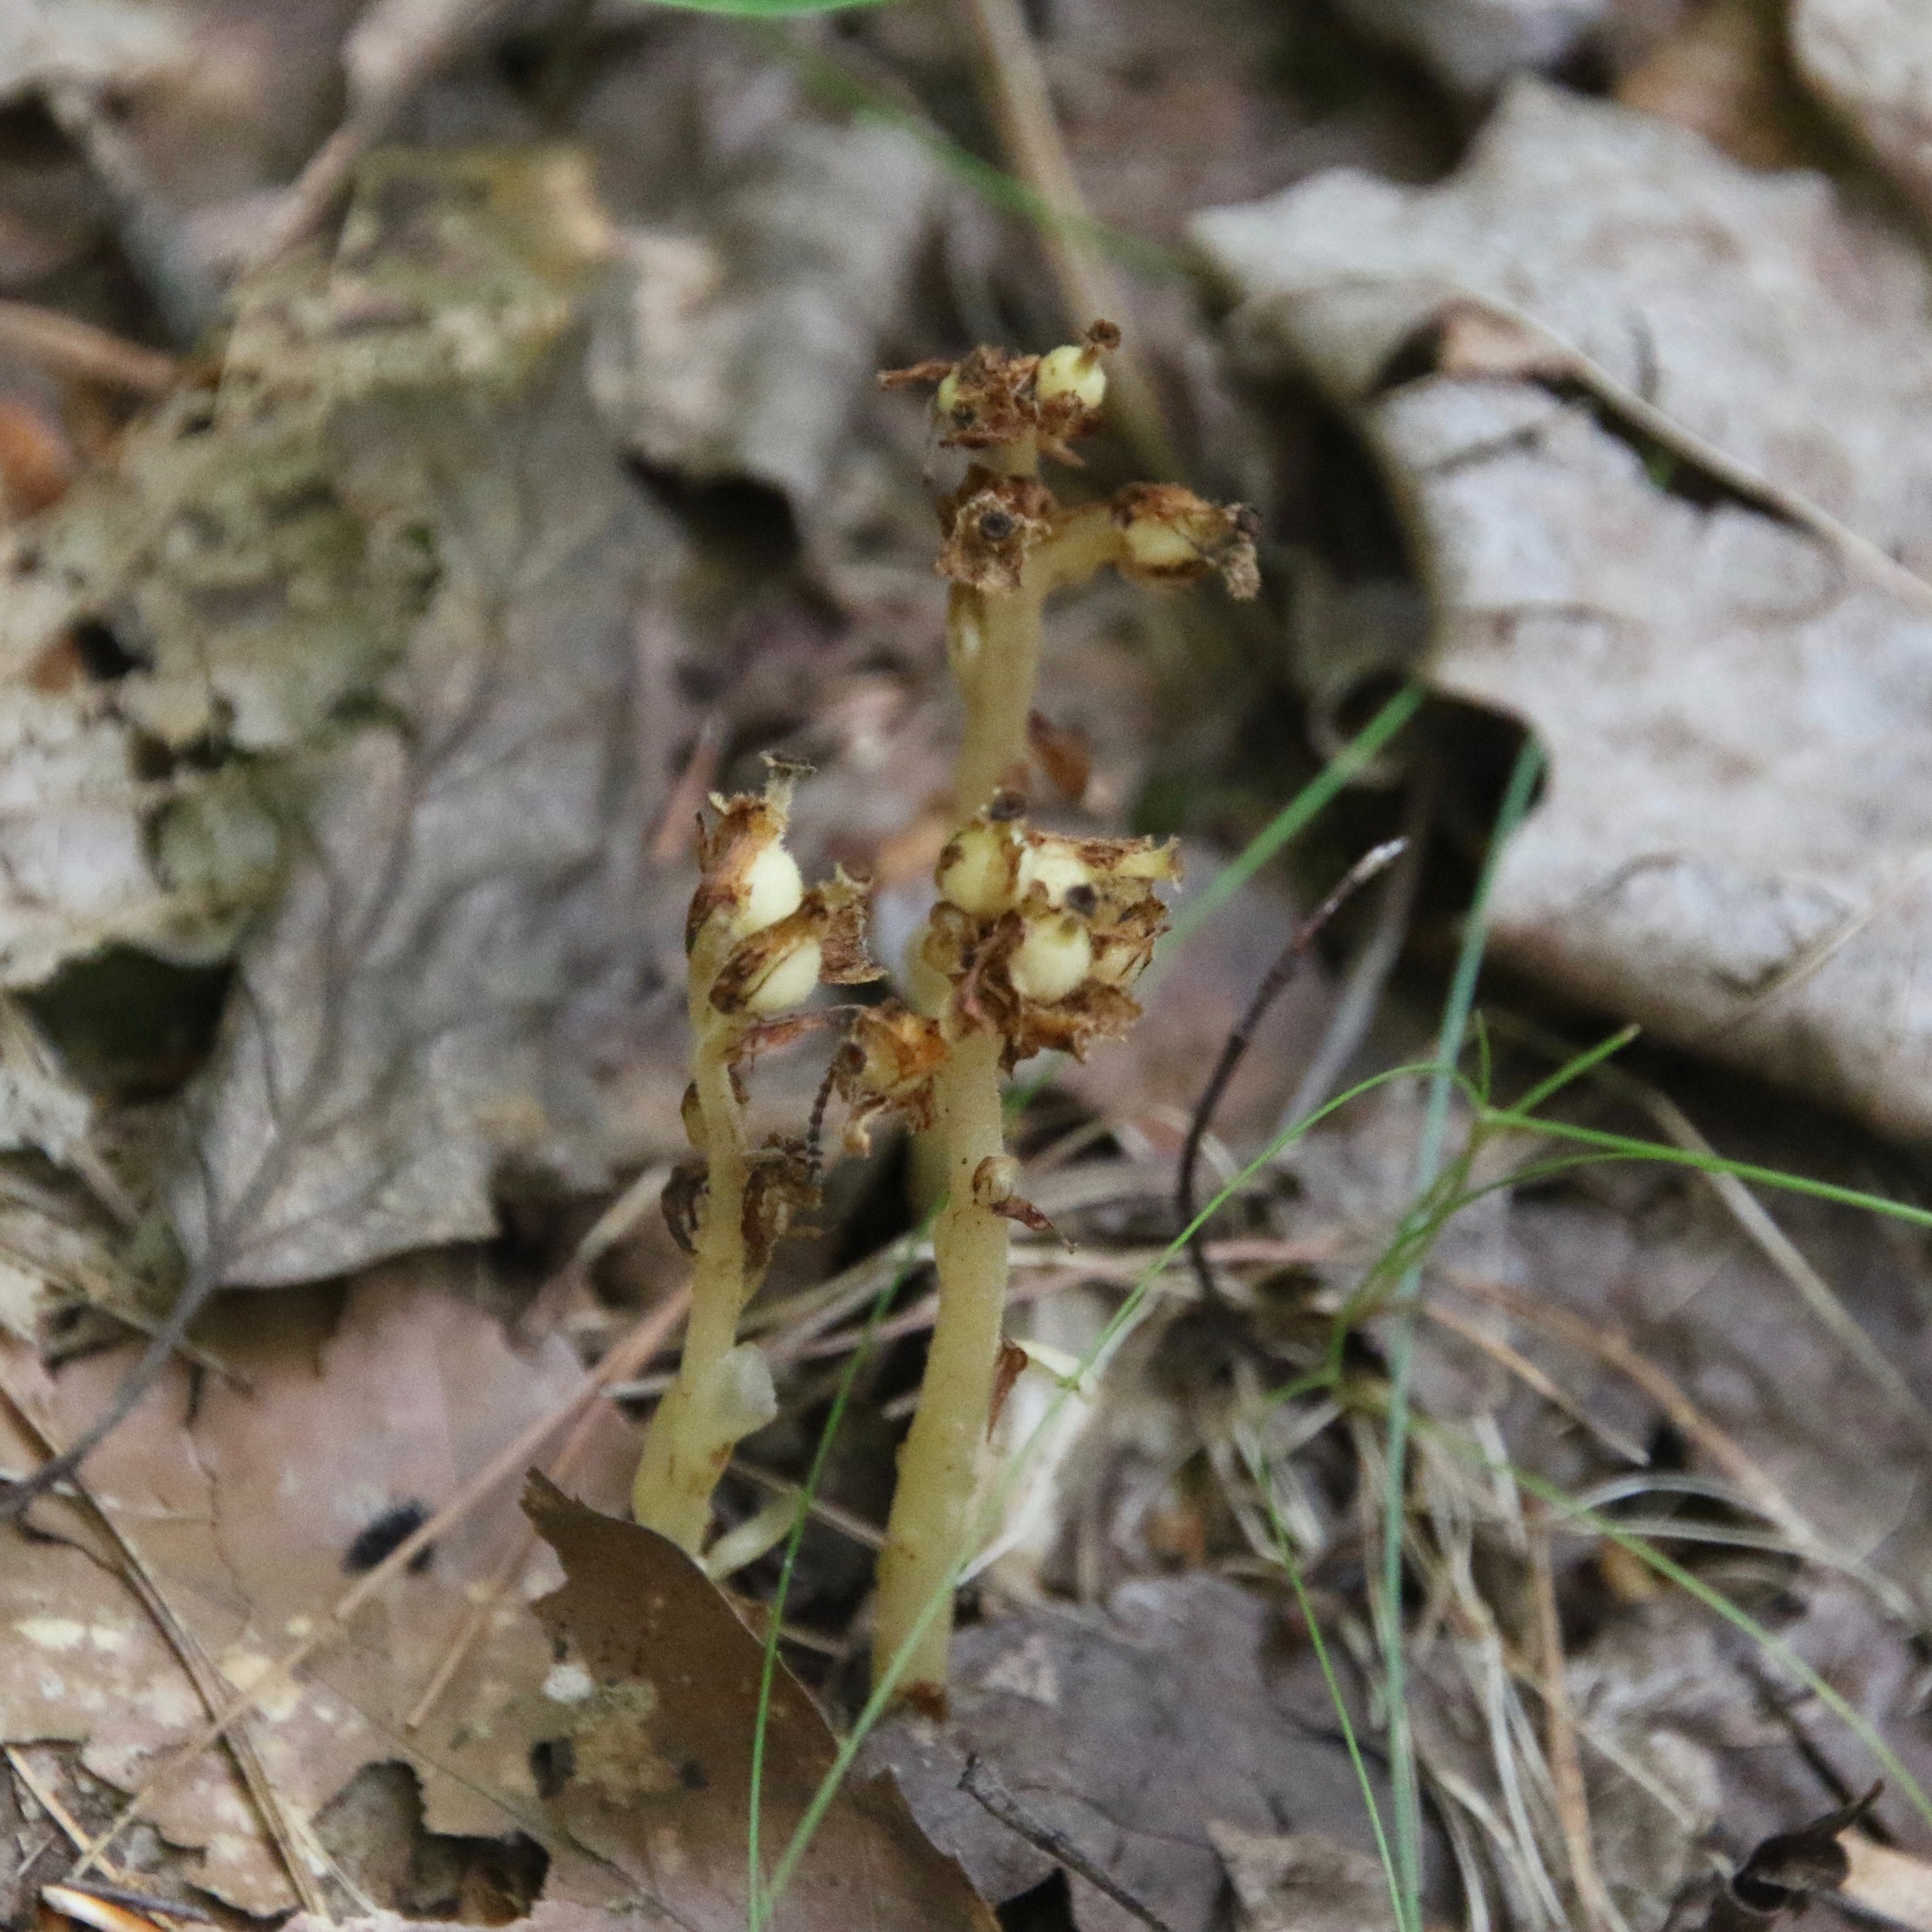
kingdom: Plantae
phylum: Tracheophyta
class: Magnoliopsida
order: Ericales
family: Ericaceae
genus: Hypopitys
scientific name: Hypopitys monotropa
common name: Yellow bird's-nest
